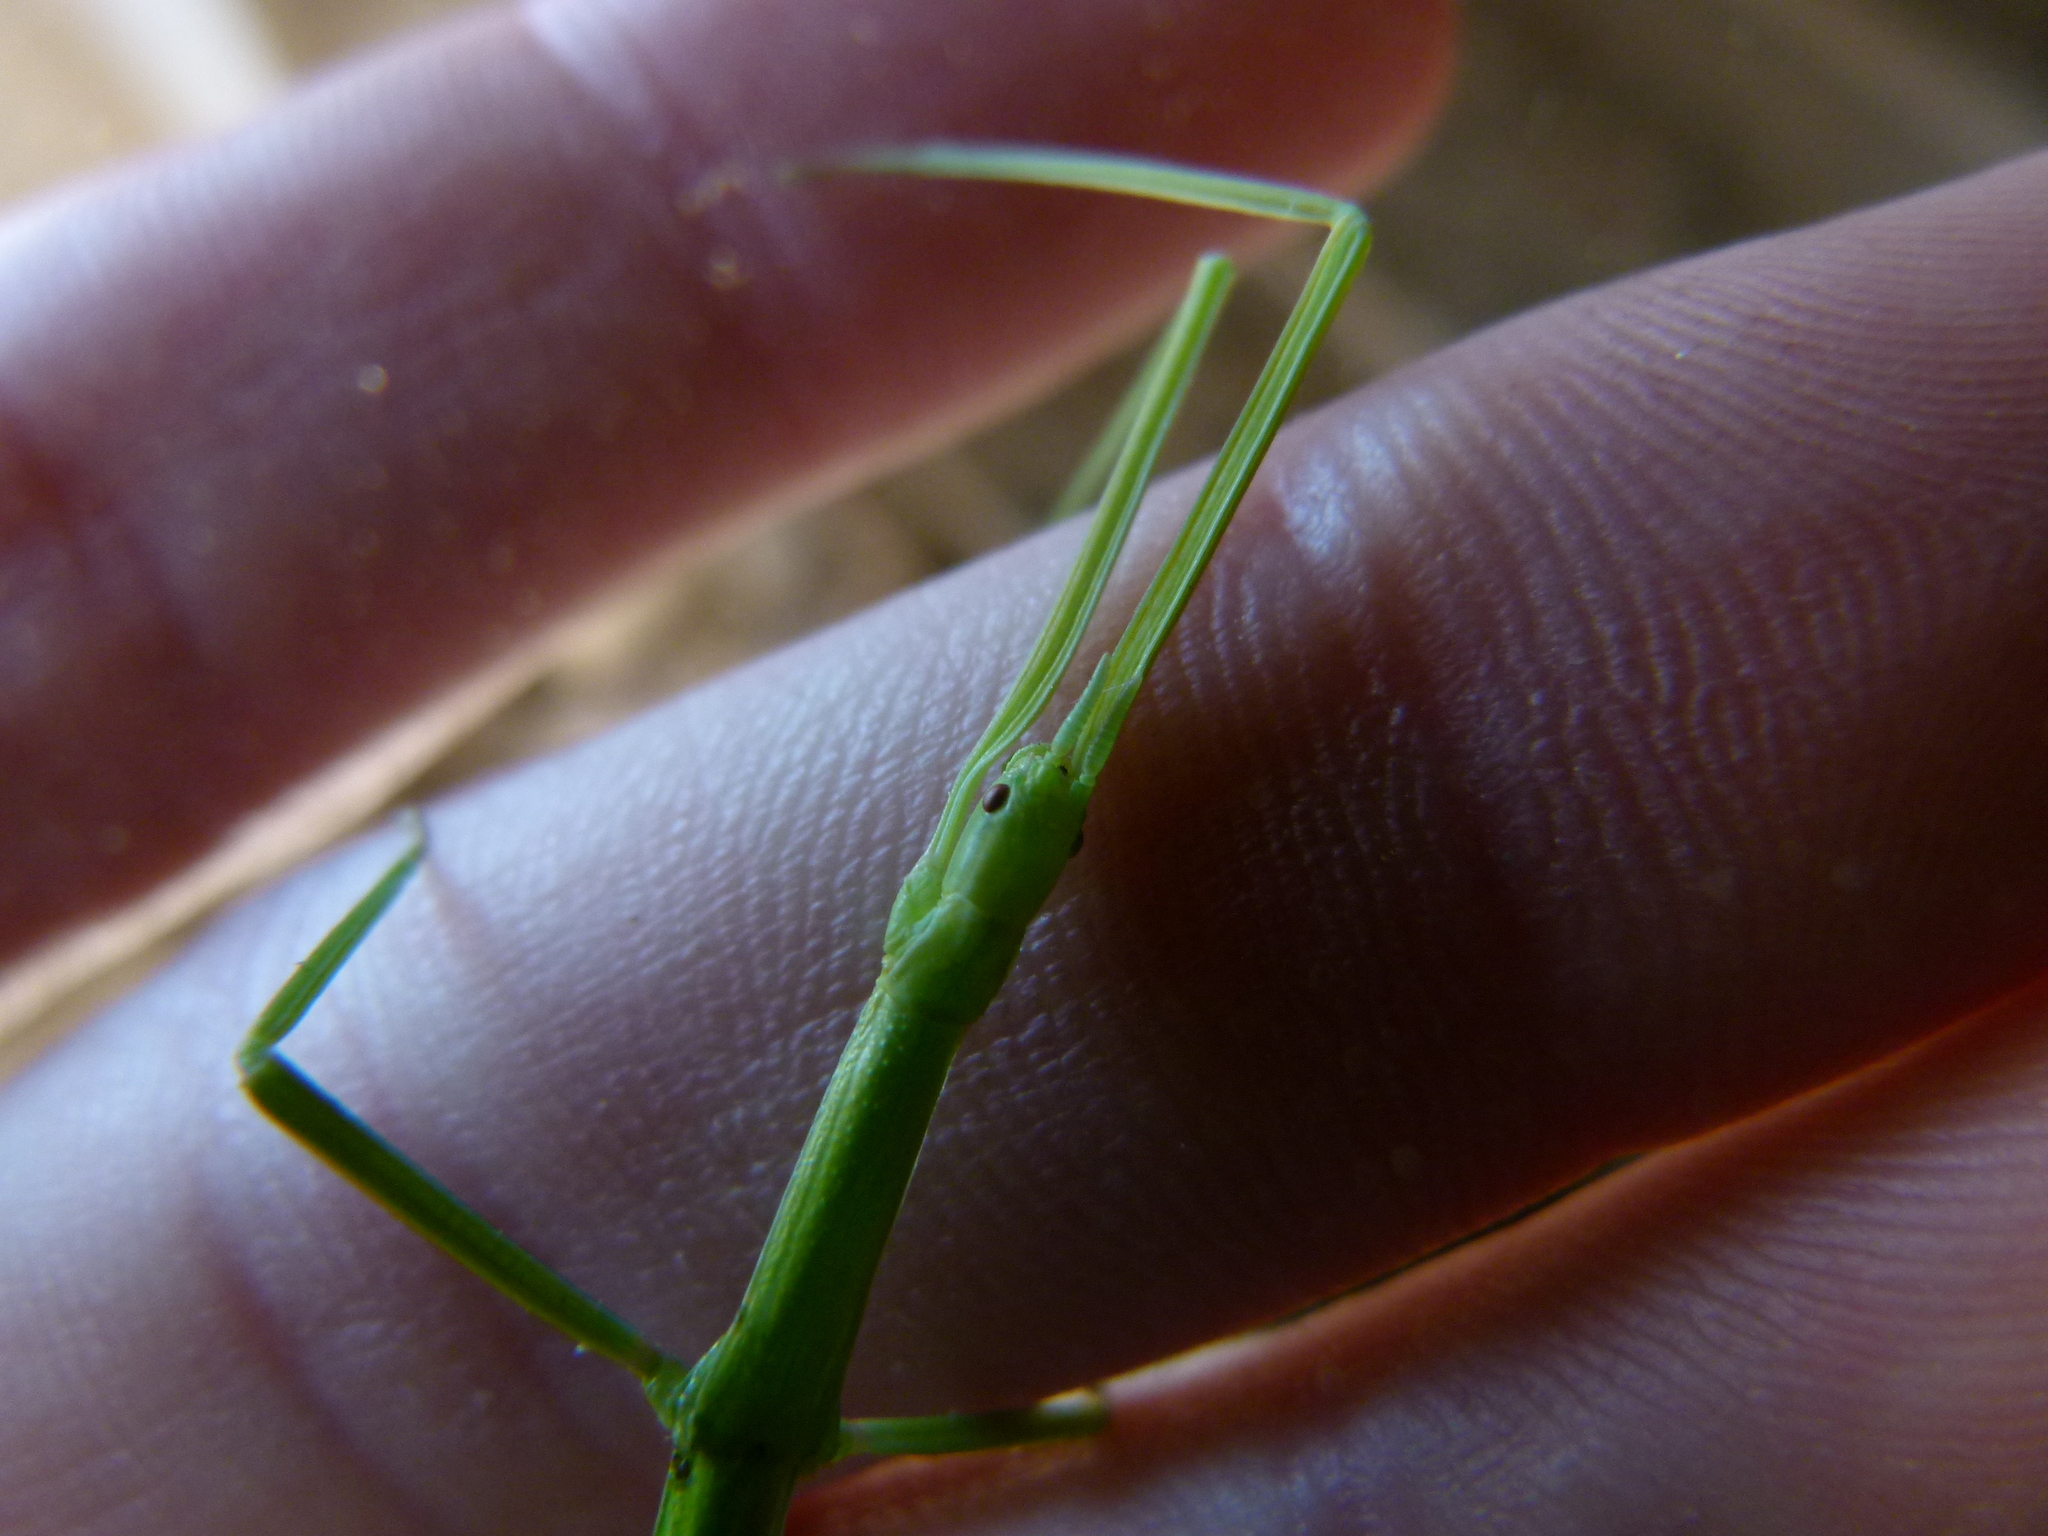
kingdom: Animalia
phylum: Arthropoda
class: Insecta
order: Phasmida
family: Bacillidae
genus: Clonopsis
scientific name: Clonopsis gallica
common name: French stick insect
